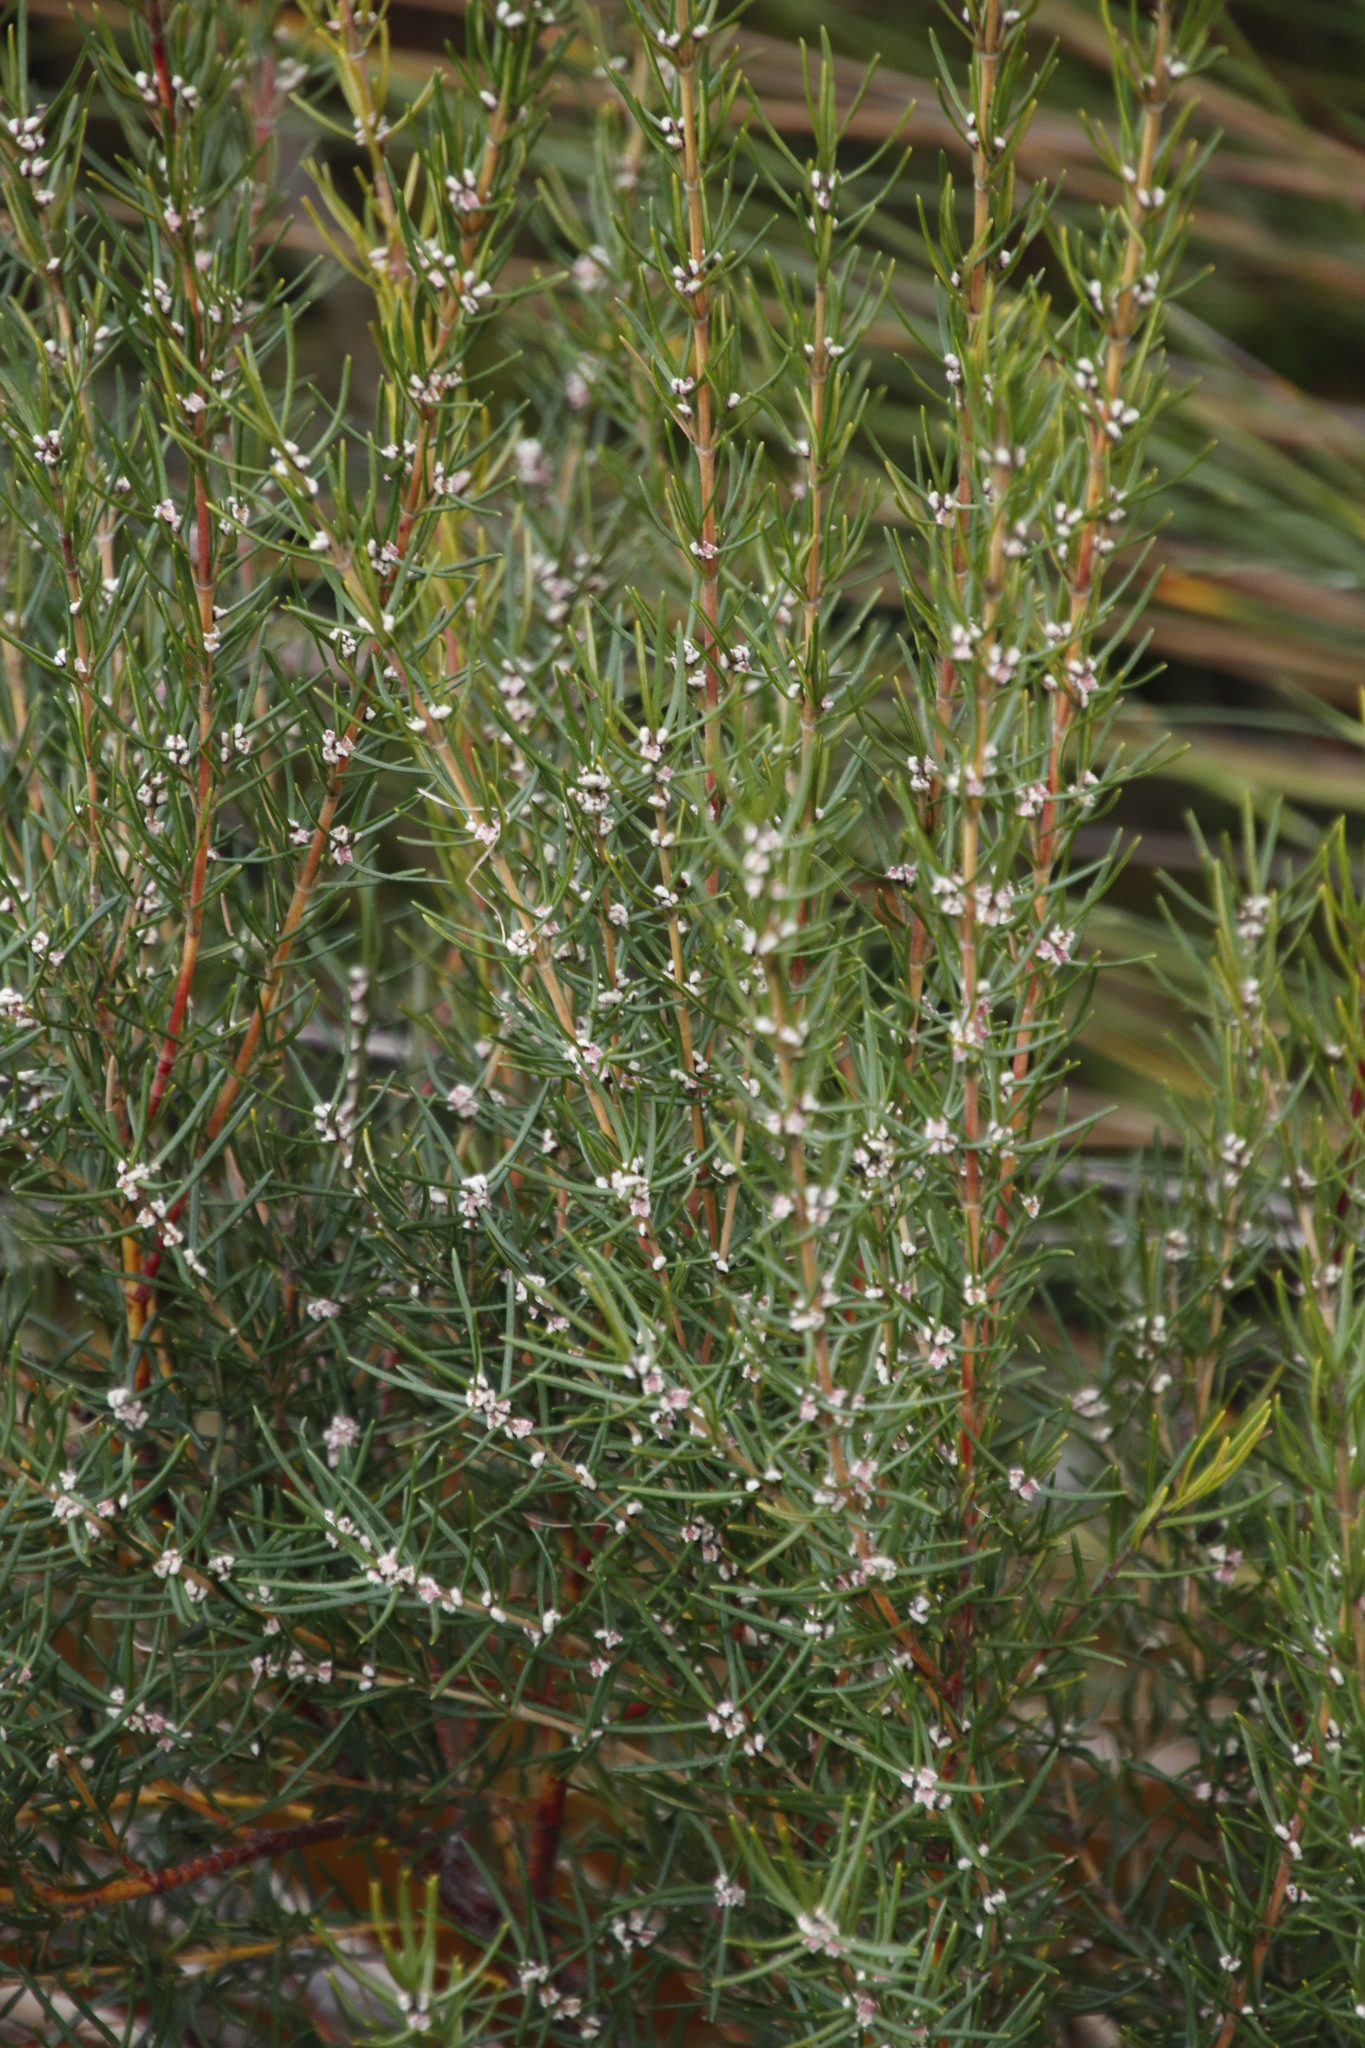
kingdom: Plantae
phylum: Tracheophyta
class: Magnoliopsida
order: Cornales
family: Grubbiaceae
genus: Grubbia
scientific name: Grubbia rosmarinifolia
